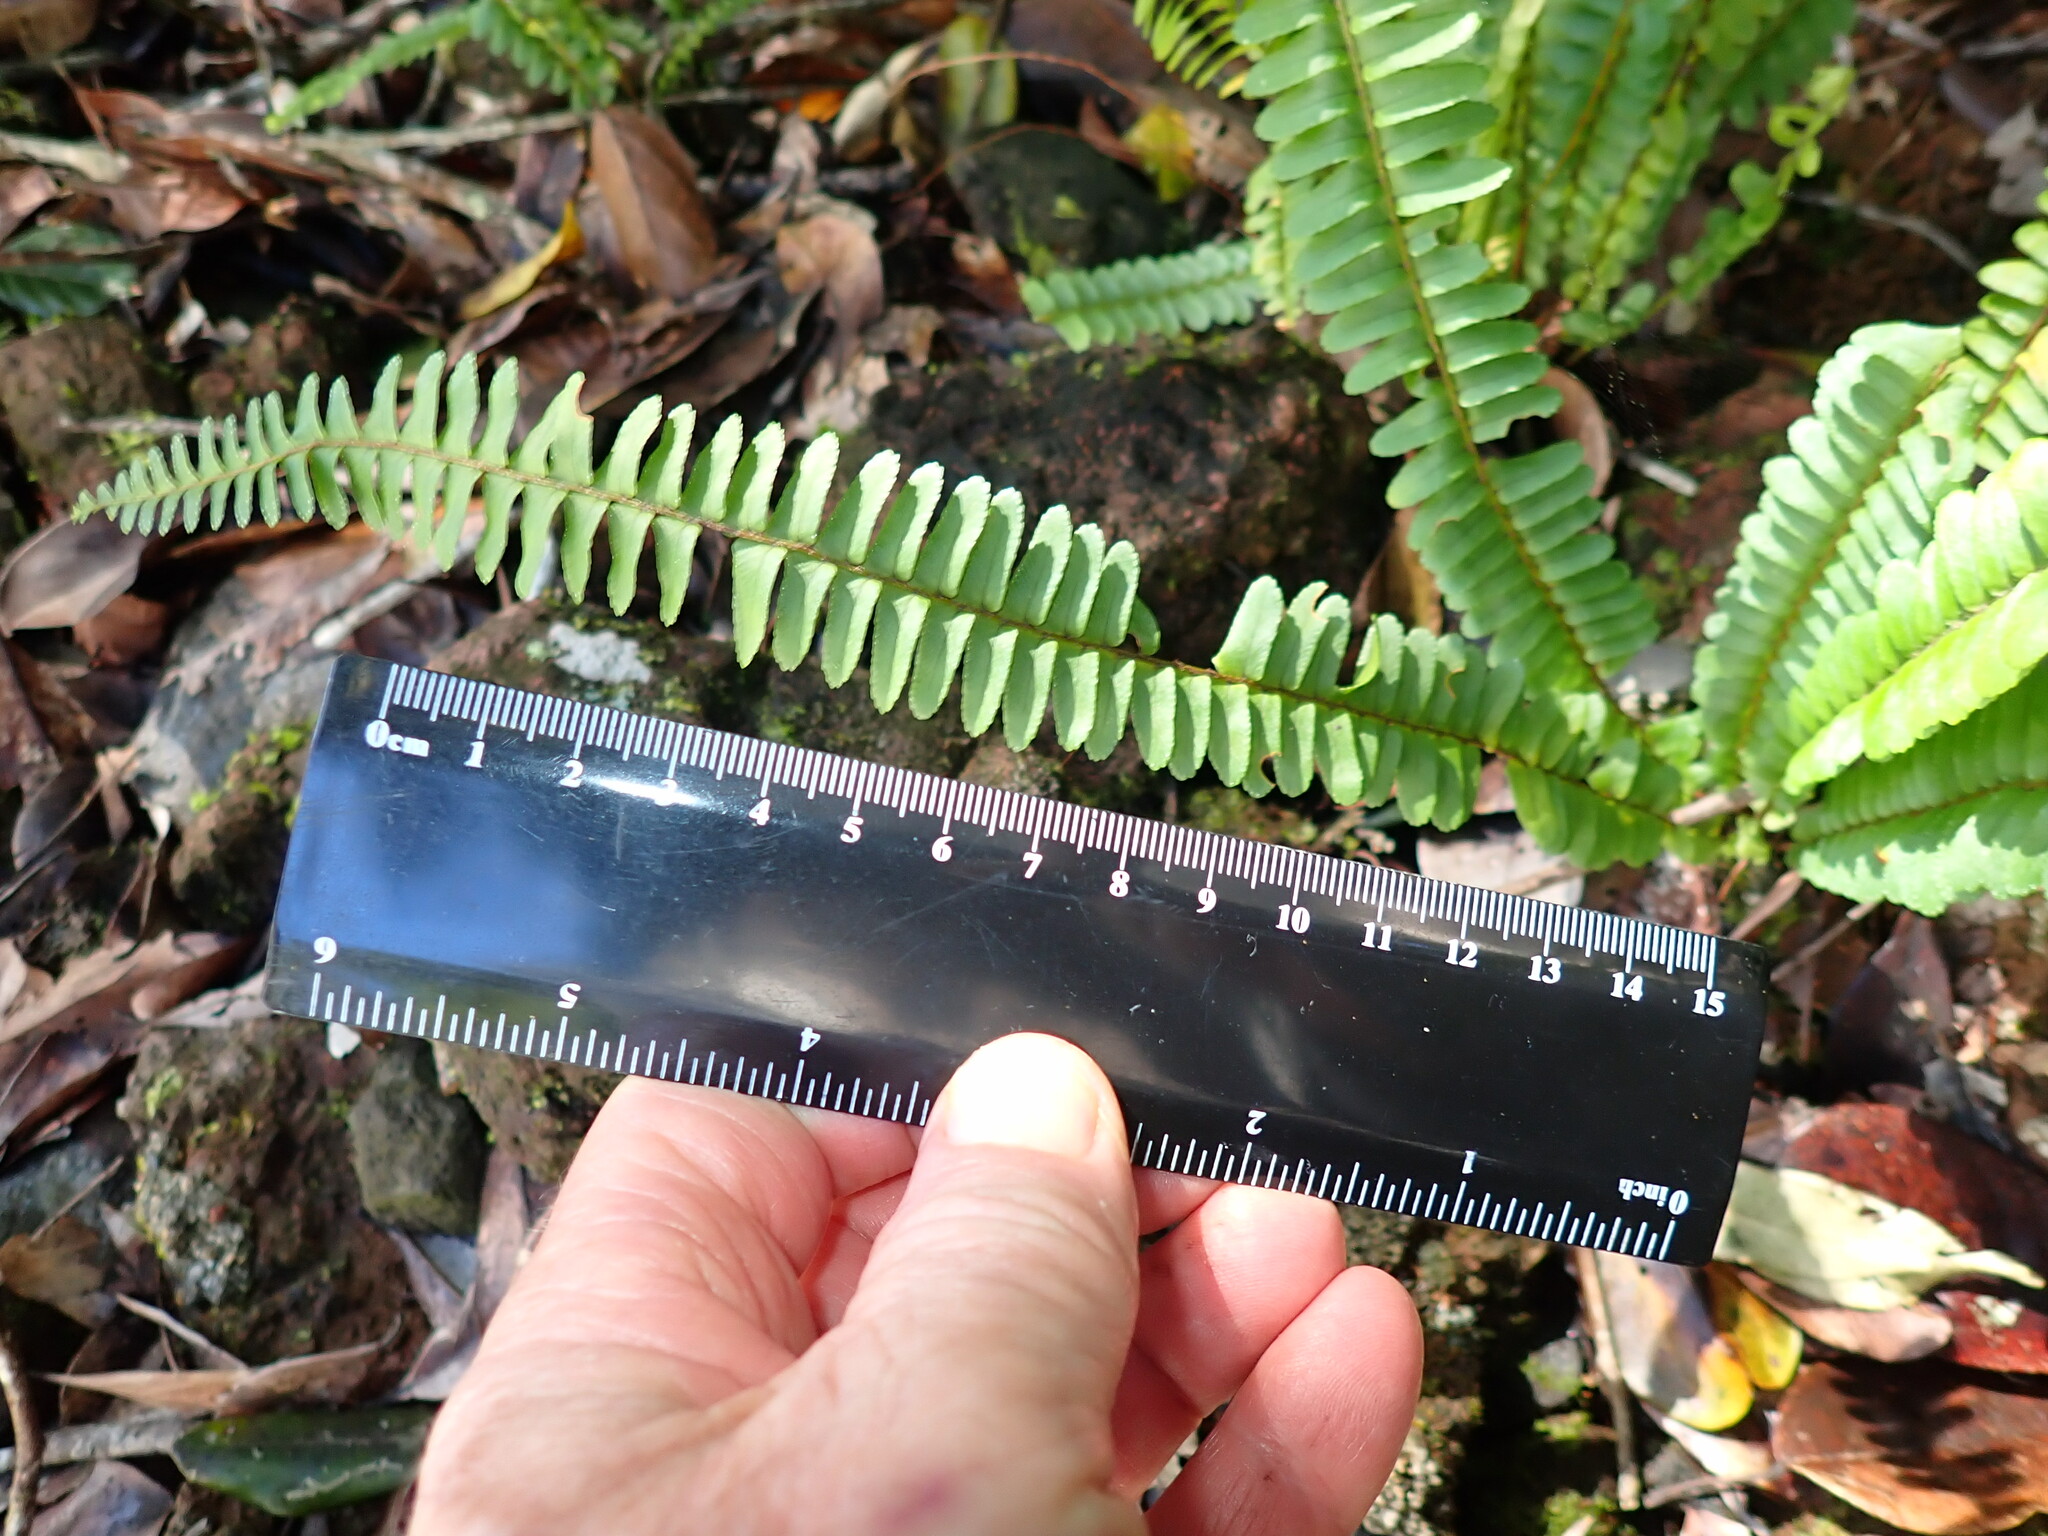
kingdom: Plantae
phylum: Tracheophyta
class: Polypodiopsida
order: Polypodiales
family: Nephrolepidaceae
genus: Nephrolepis
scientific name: Nephrolepis cordifolia
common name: Narrow swordfern
